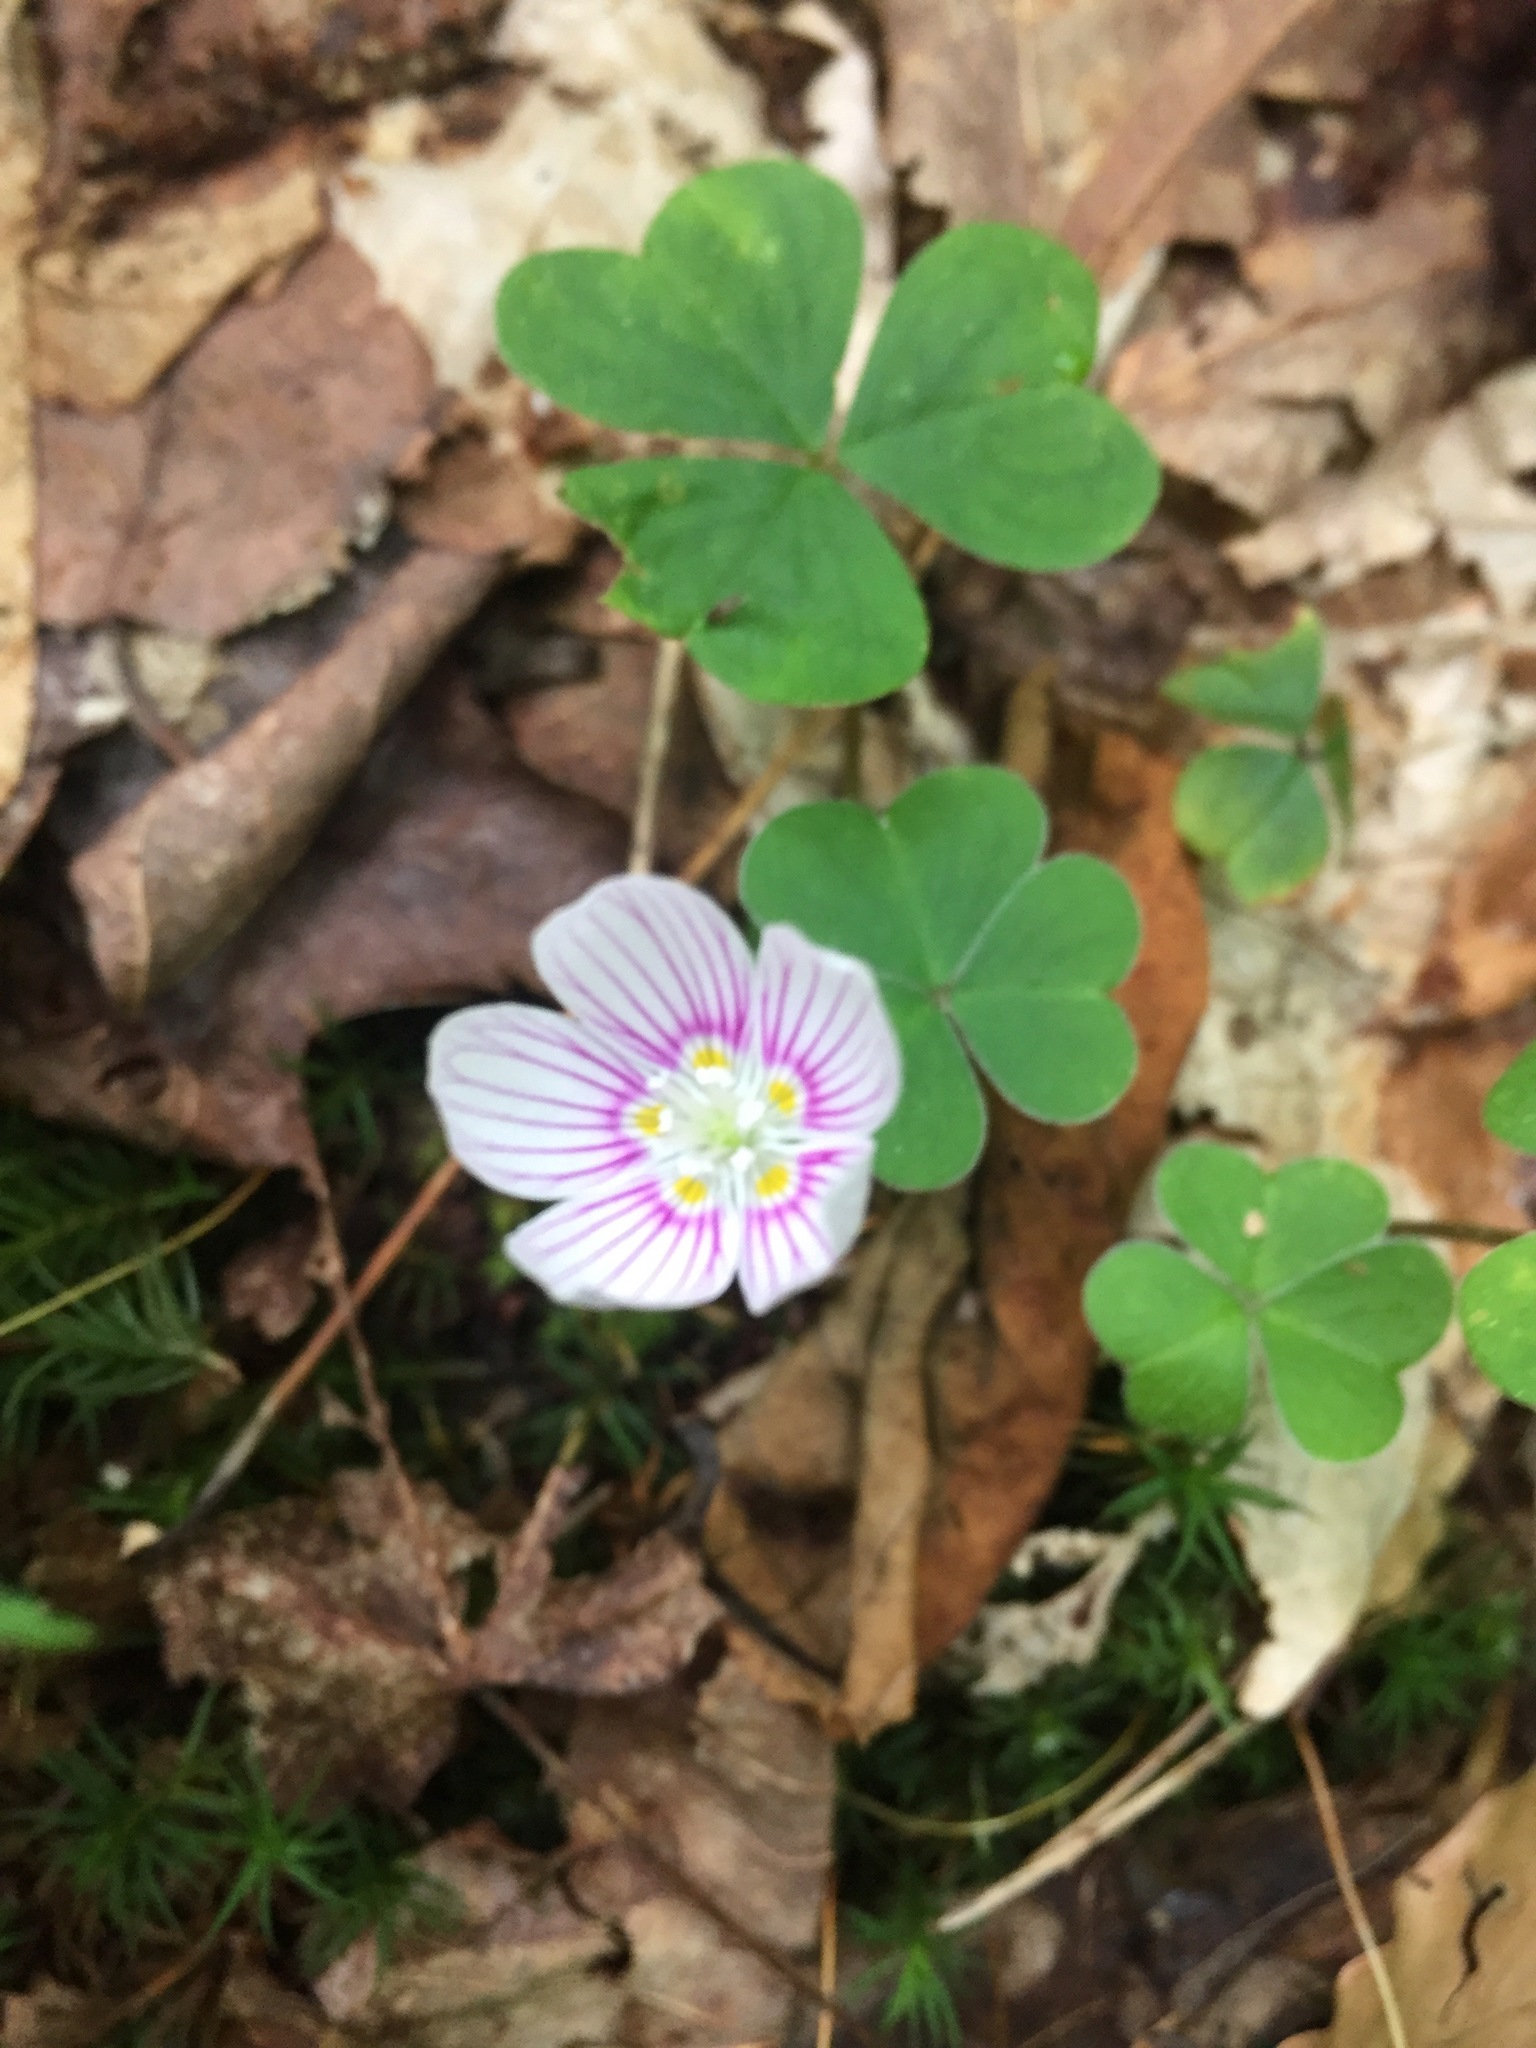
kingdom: Plantae
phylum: Tracheophyta
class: Magnoliopsida
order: Oxalidales
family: Oxalidaceae
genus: Oxalis
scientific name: Oxalis montana
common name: American wood-sorrel
